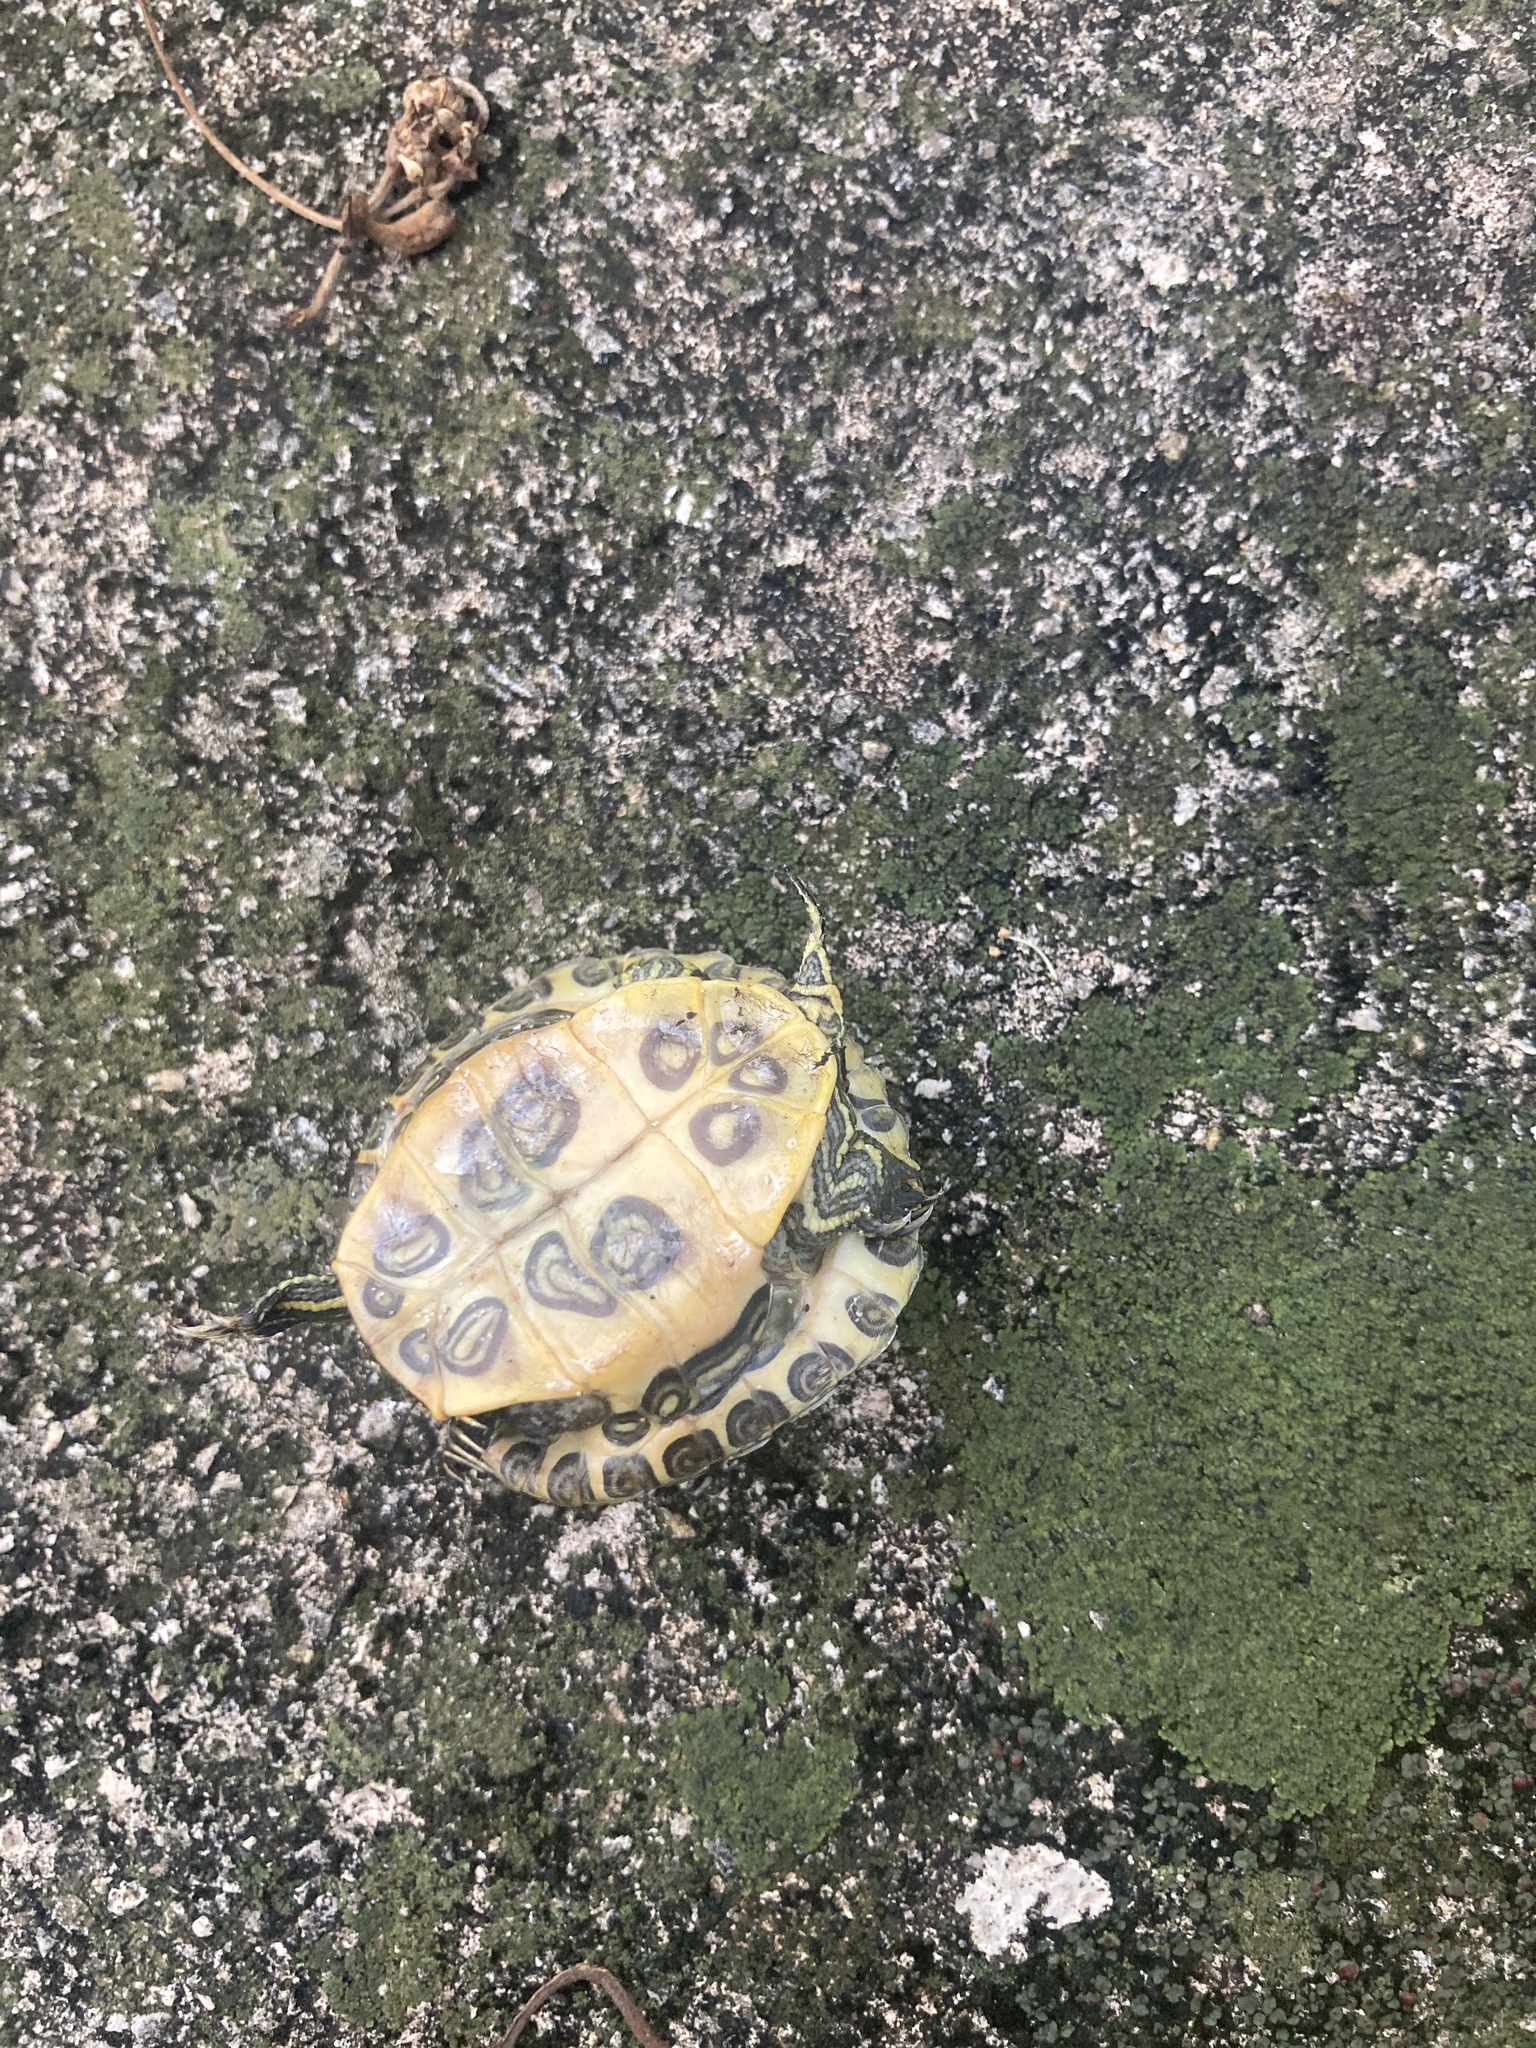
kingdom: Animalia
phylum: Chordata
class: Testudines
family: Emydidae
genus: Trachemys
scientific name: Trachemys scripta
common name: Slider
